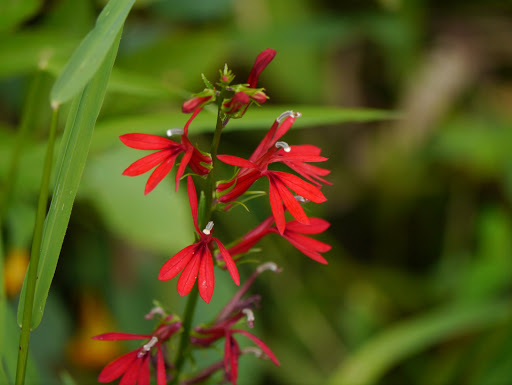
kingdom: Plantae
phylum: Tracheophyta
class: Magnoliopsida
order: Asterales
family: Campanulaceae
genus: Lobelia
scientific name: Lobelia cardinalis
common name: Cardinal flower
